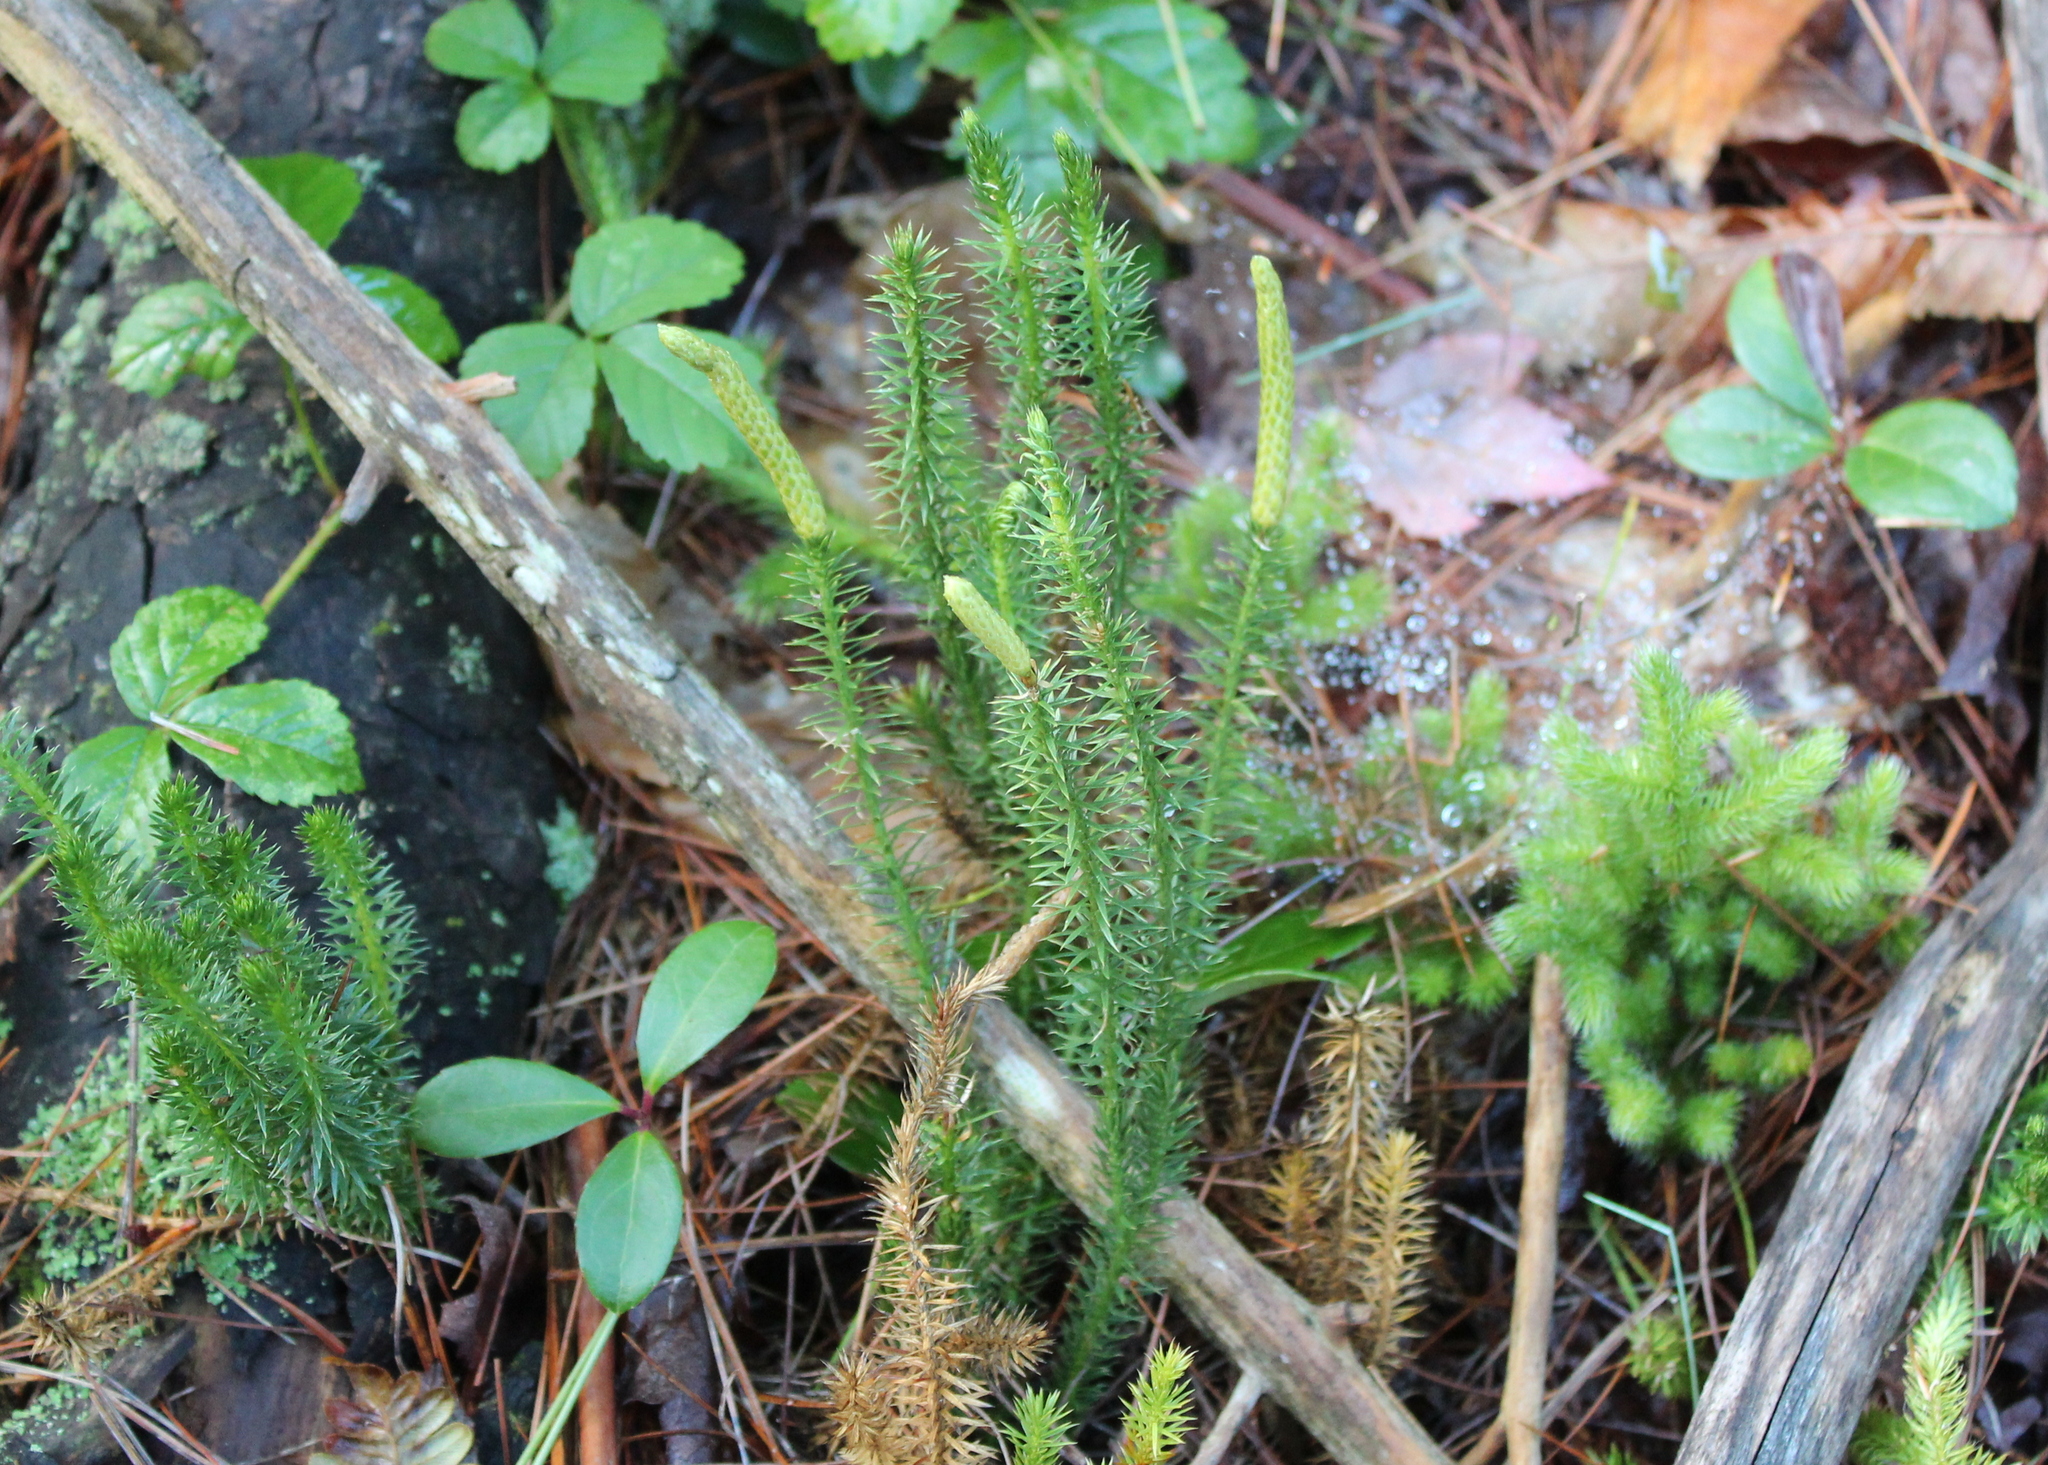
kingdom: Plantae
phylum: Tracheophyta
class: Lycopodiopsida
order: Lycopodiales
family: Lycopodiaceae
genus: Spinulum
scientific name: Spinulum annotinum
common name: Interrupted club-moss
